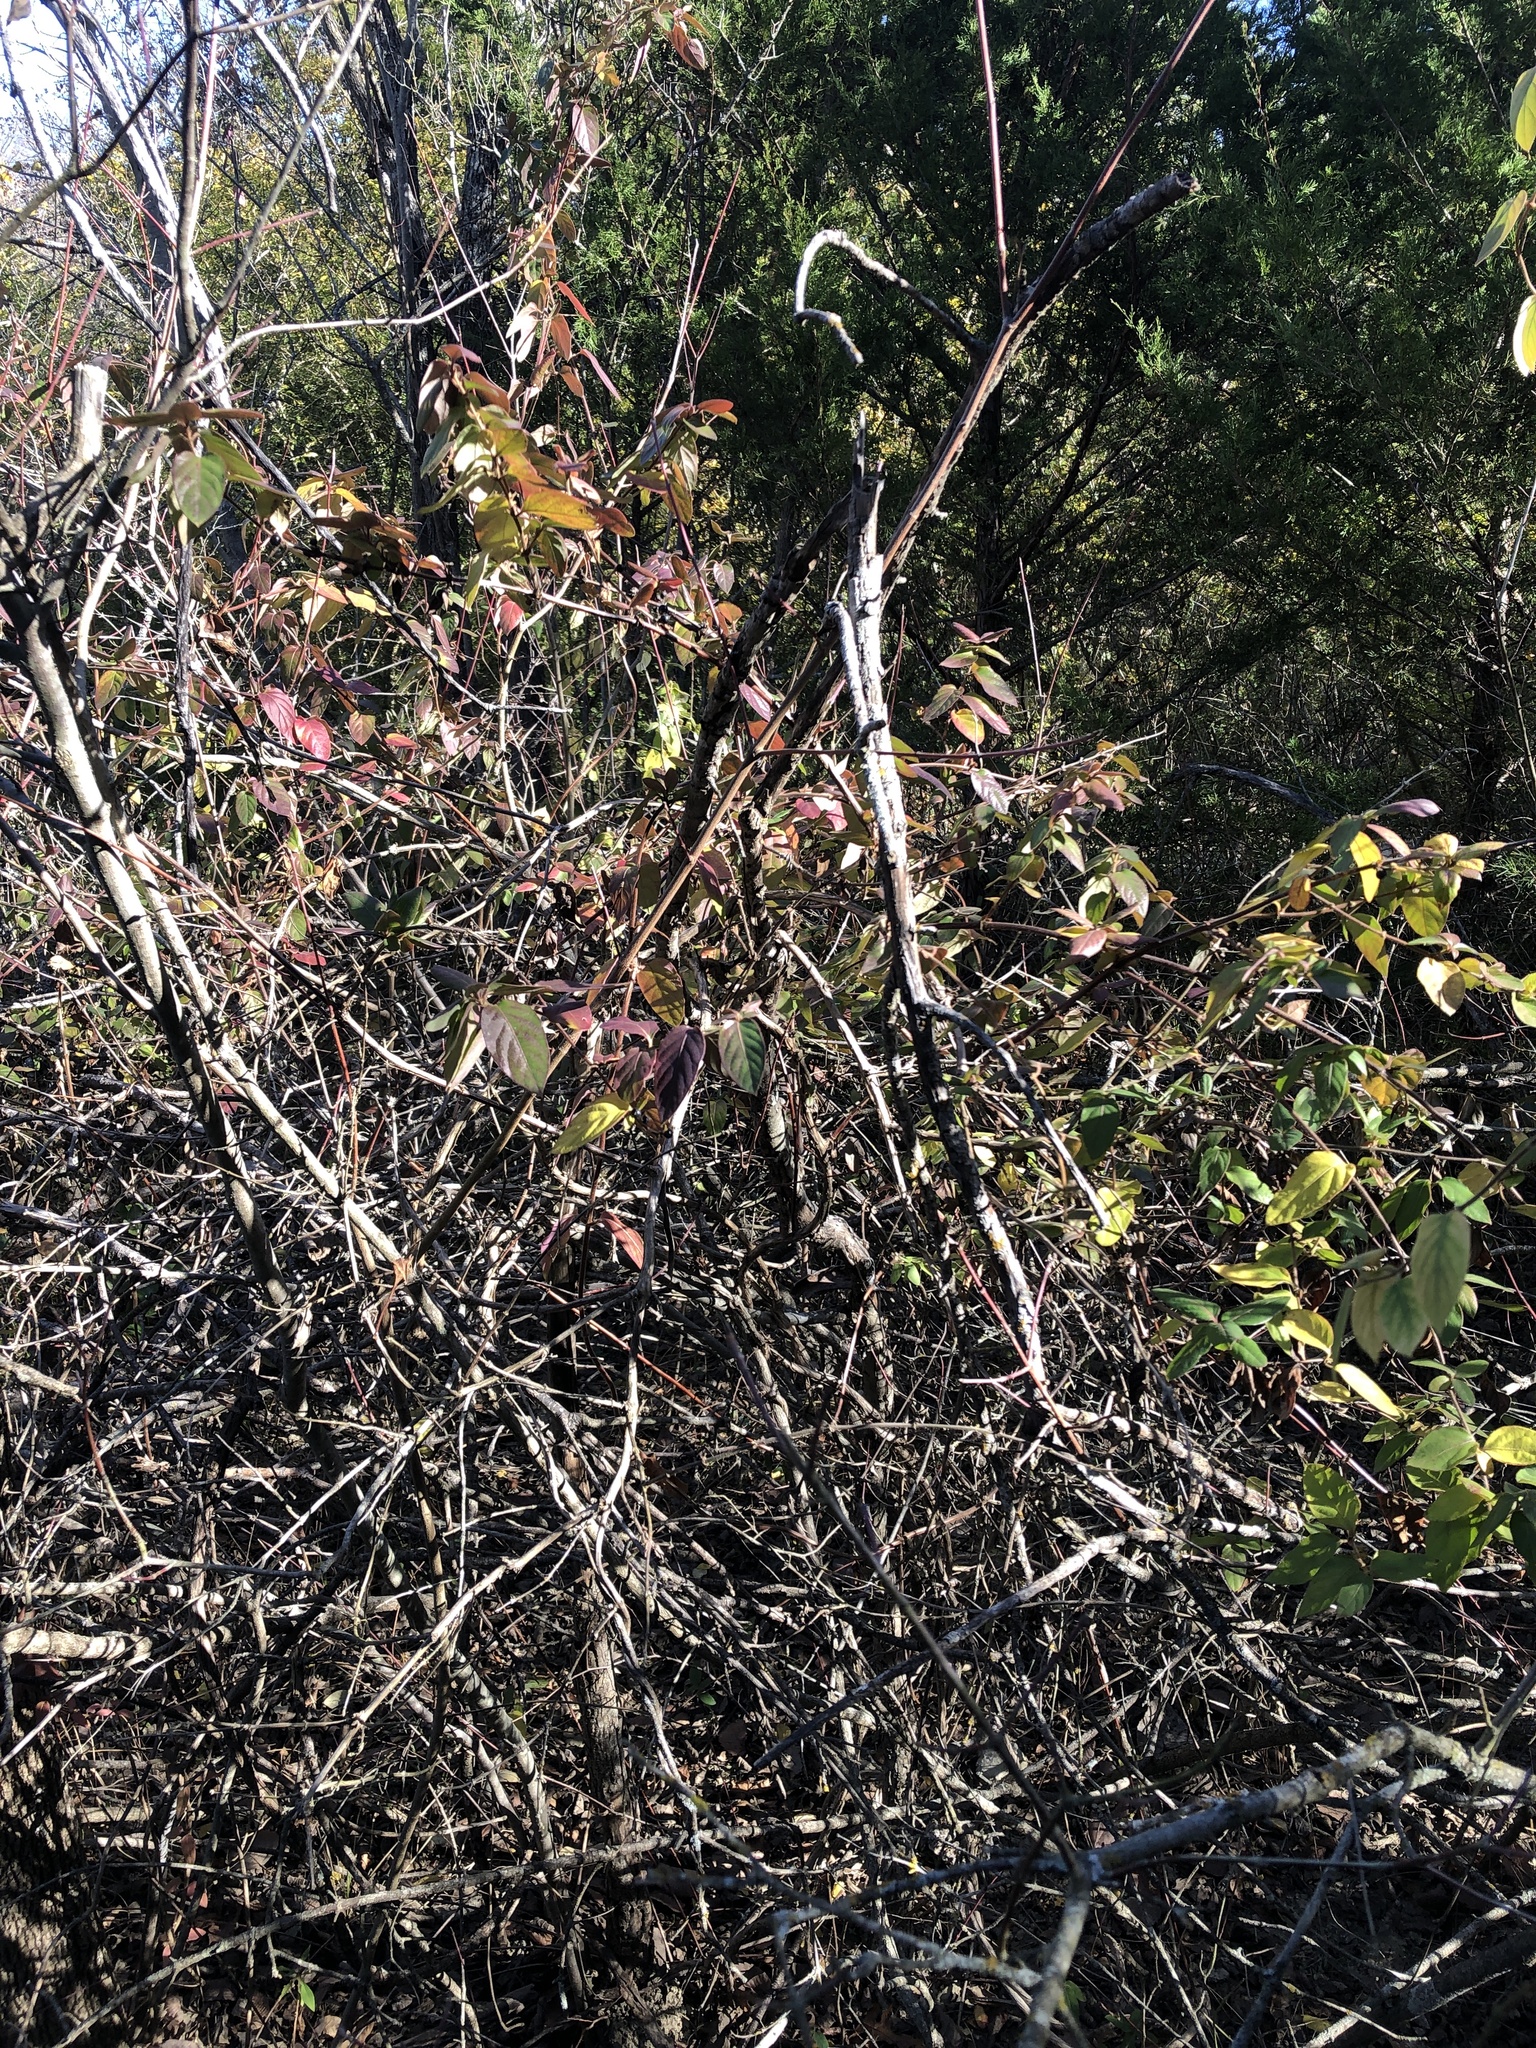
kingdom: Plantae
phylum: Tracheophyta
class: Magnoliopsida
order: Dipsacales
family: Caprifoliaceae
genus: Lonicera
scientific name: Lonicera japonica
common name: Japanese honeysuckle
